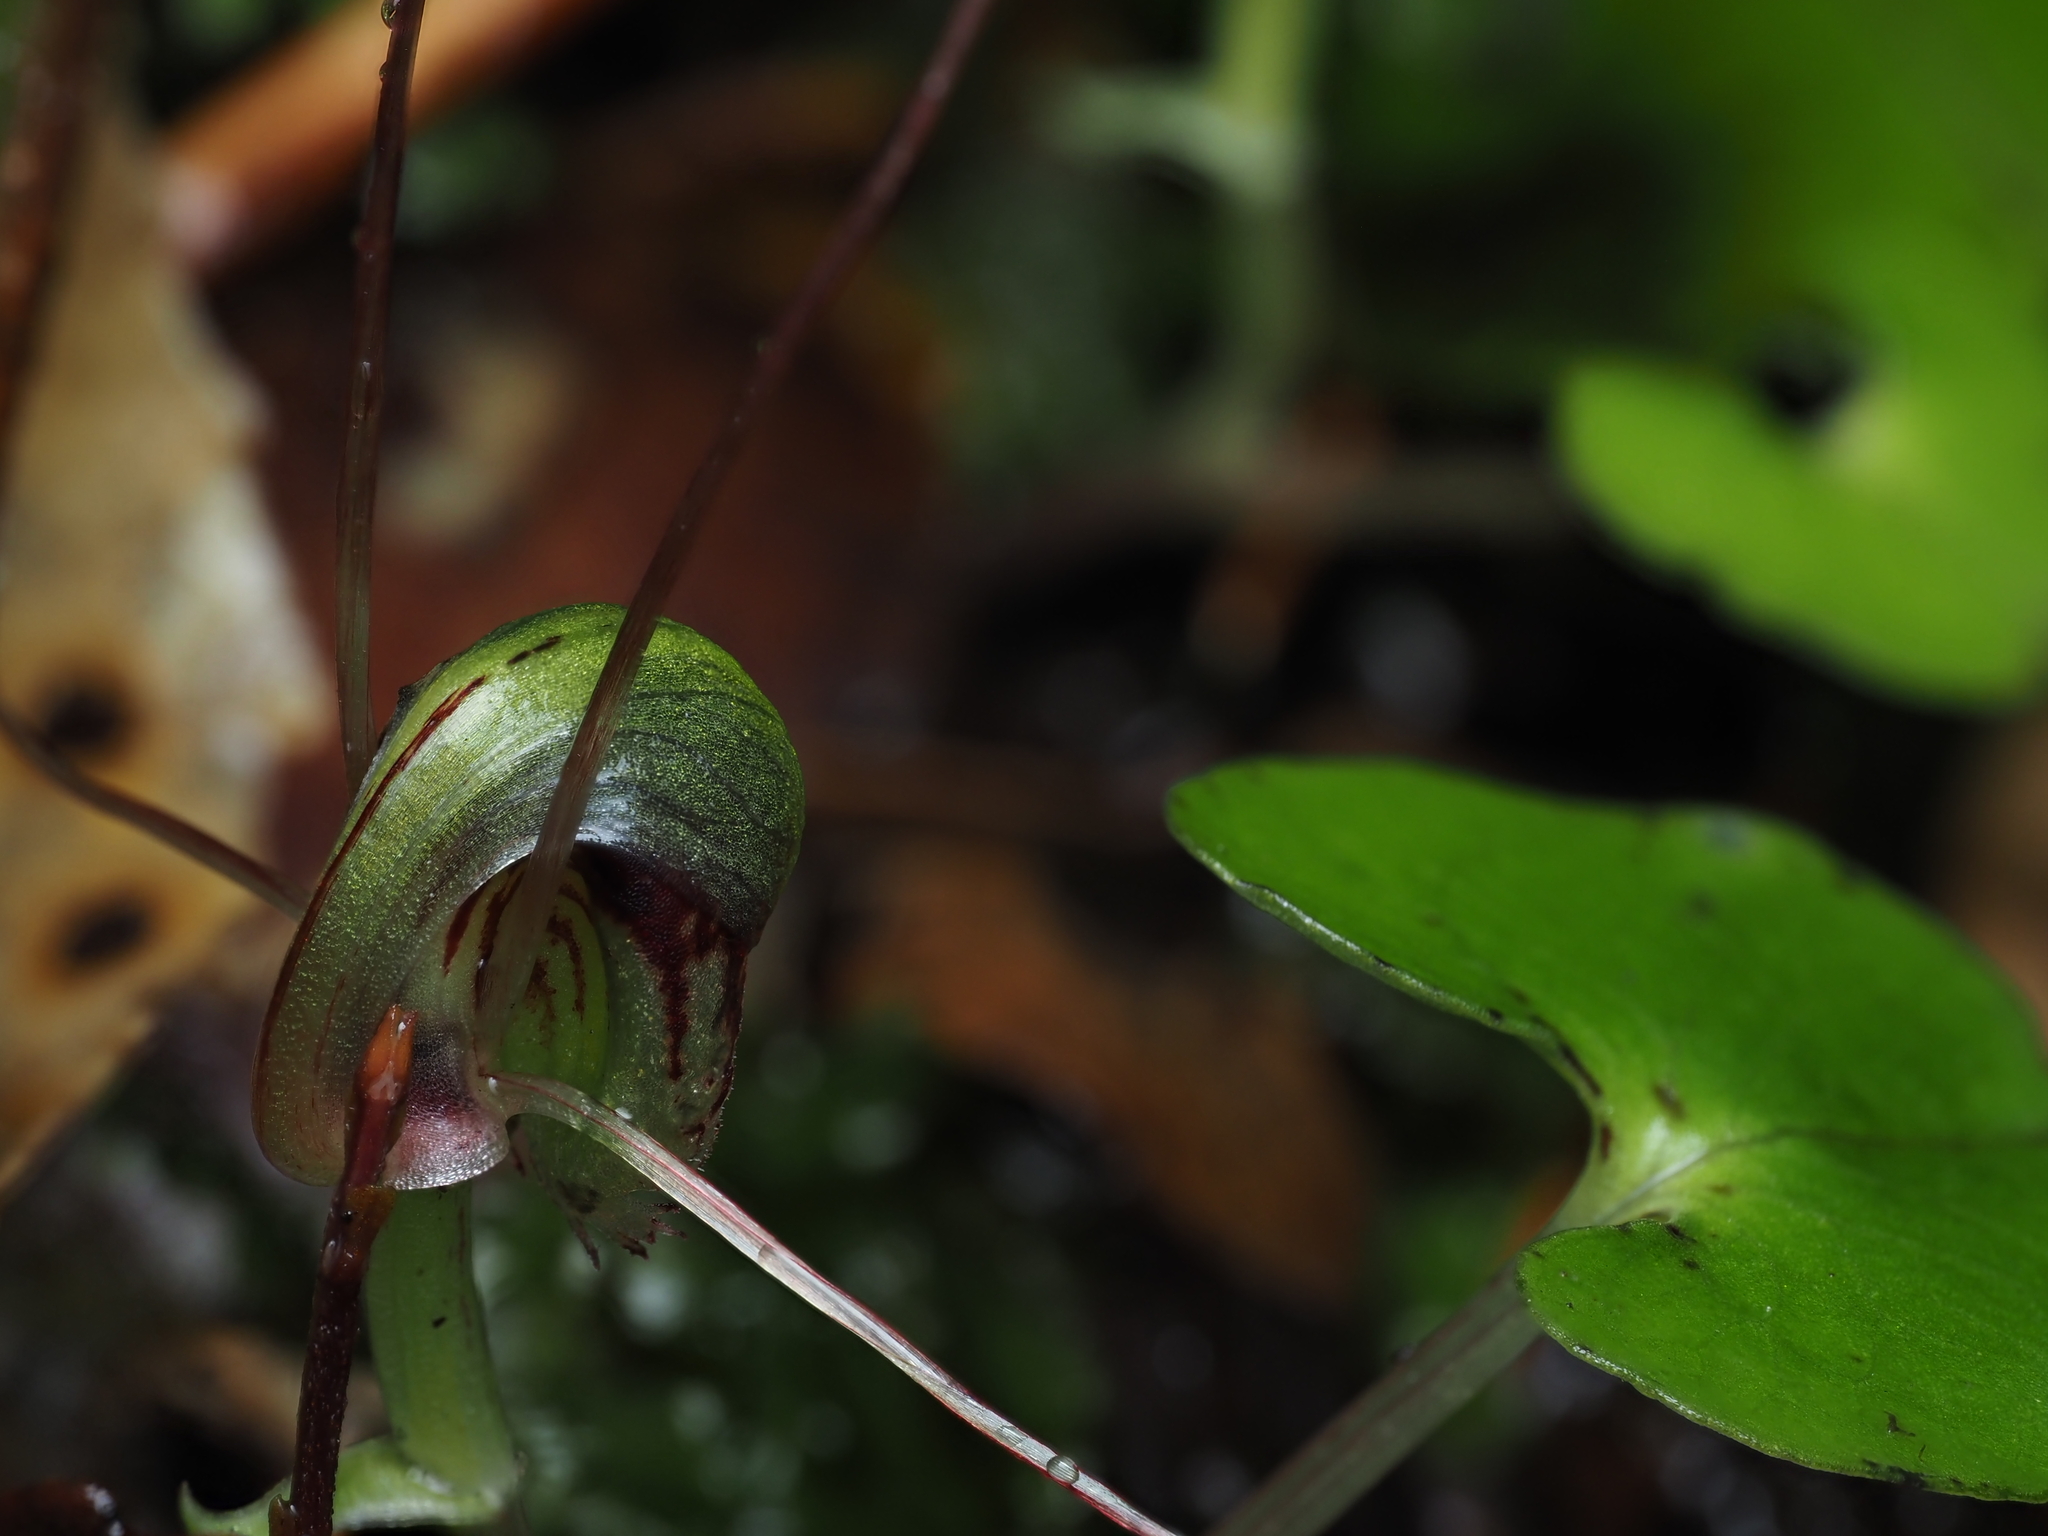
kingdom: Plantae
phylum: Tracheophyta
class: Liliopsida
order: Asparagales
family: Orchidaceae
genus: Corybas
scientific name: Corybas vitreus
